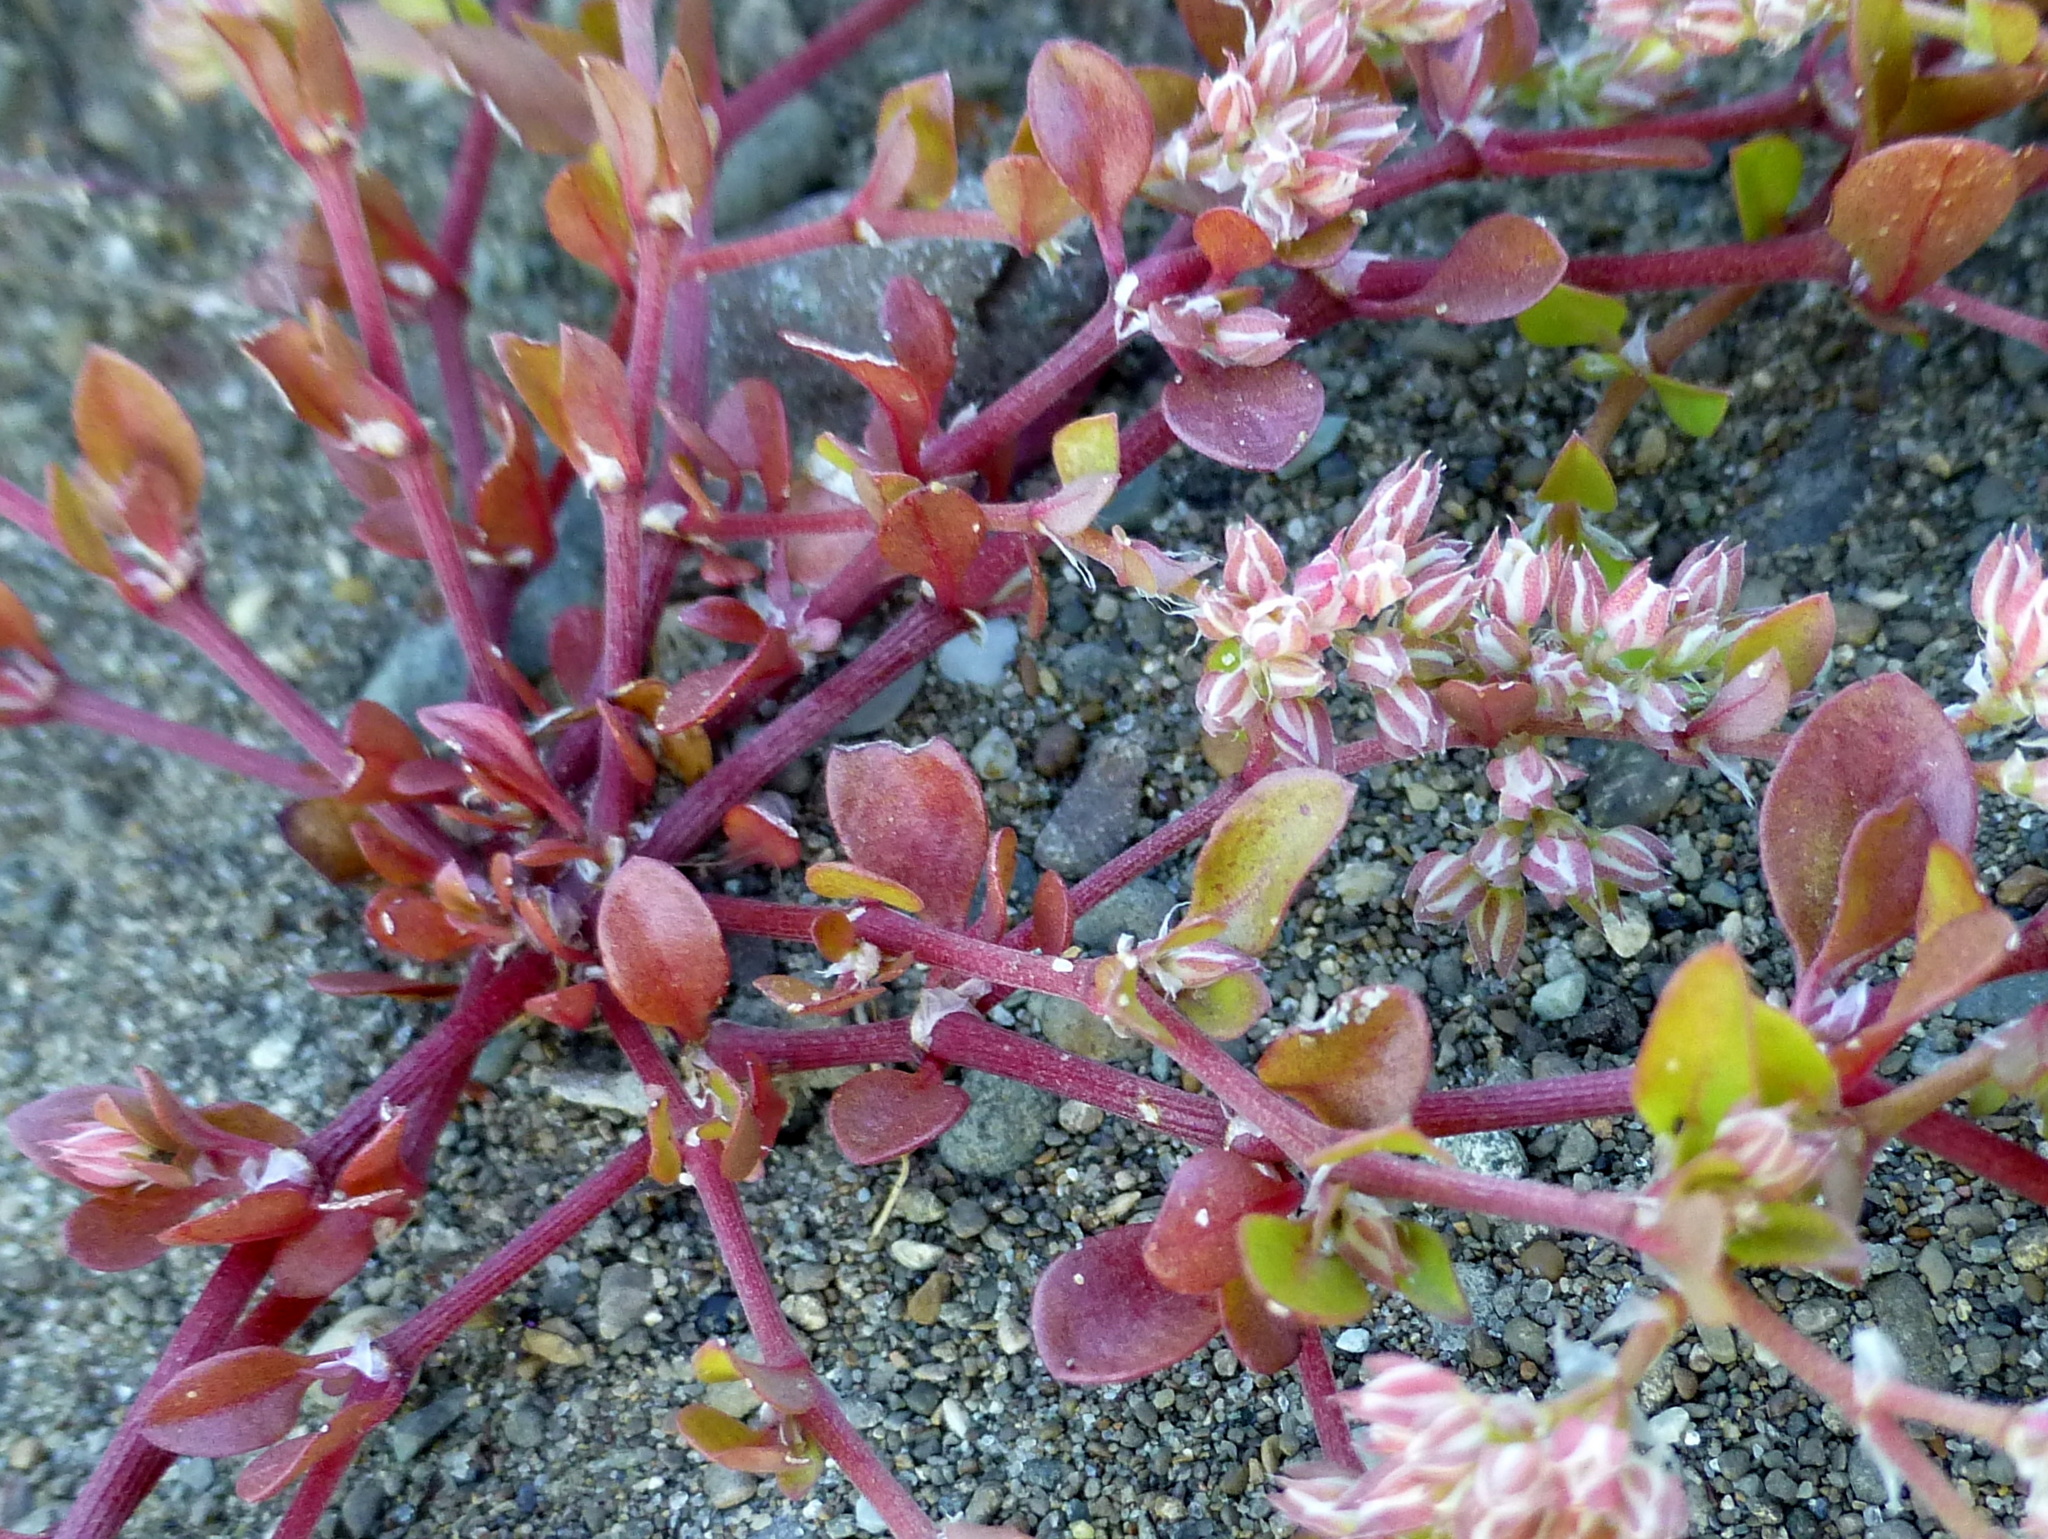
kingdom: Plantae
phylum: Tracheophyta
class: Magnoliopsida
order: Caryophyllales
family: Caryophyllaceae
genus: Polycarpon
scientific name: Polycarpon tetraphyllum
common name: Four-leaved all-seed
